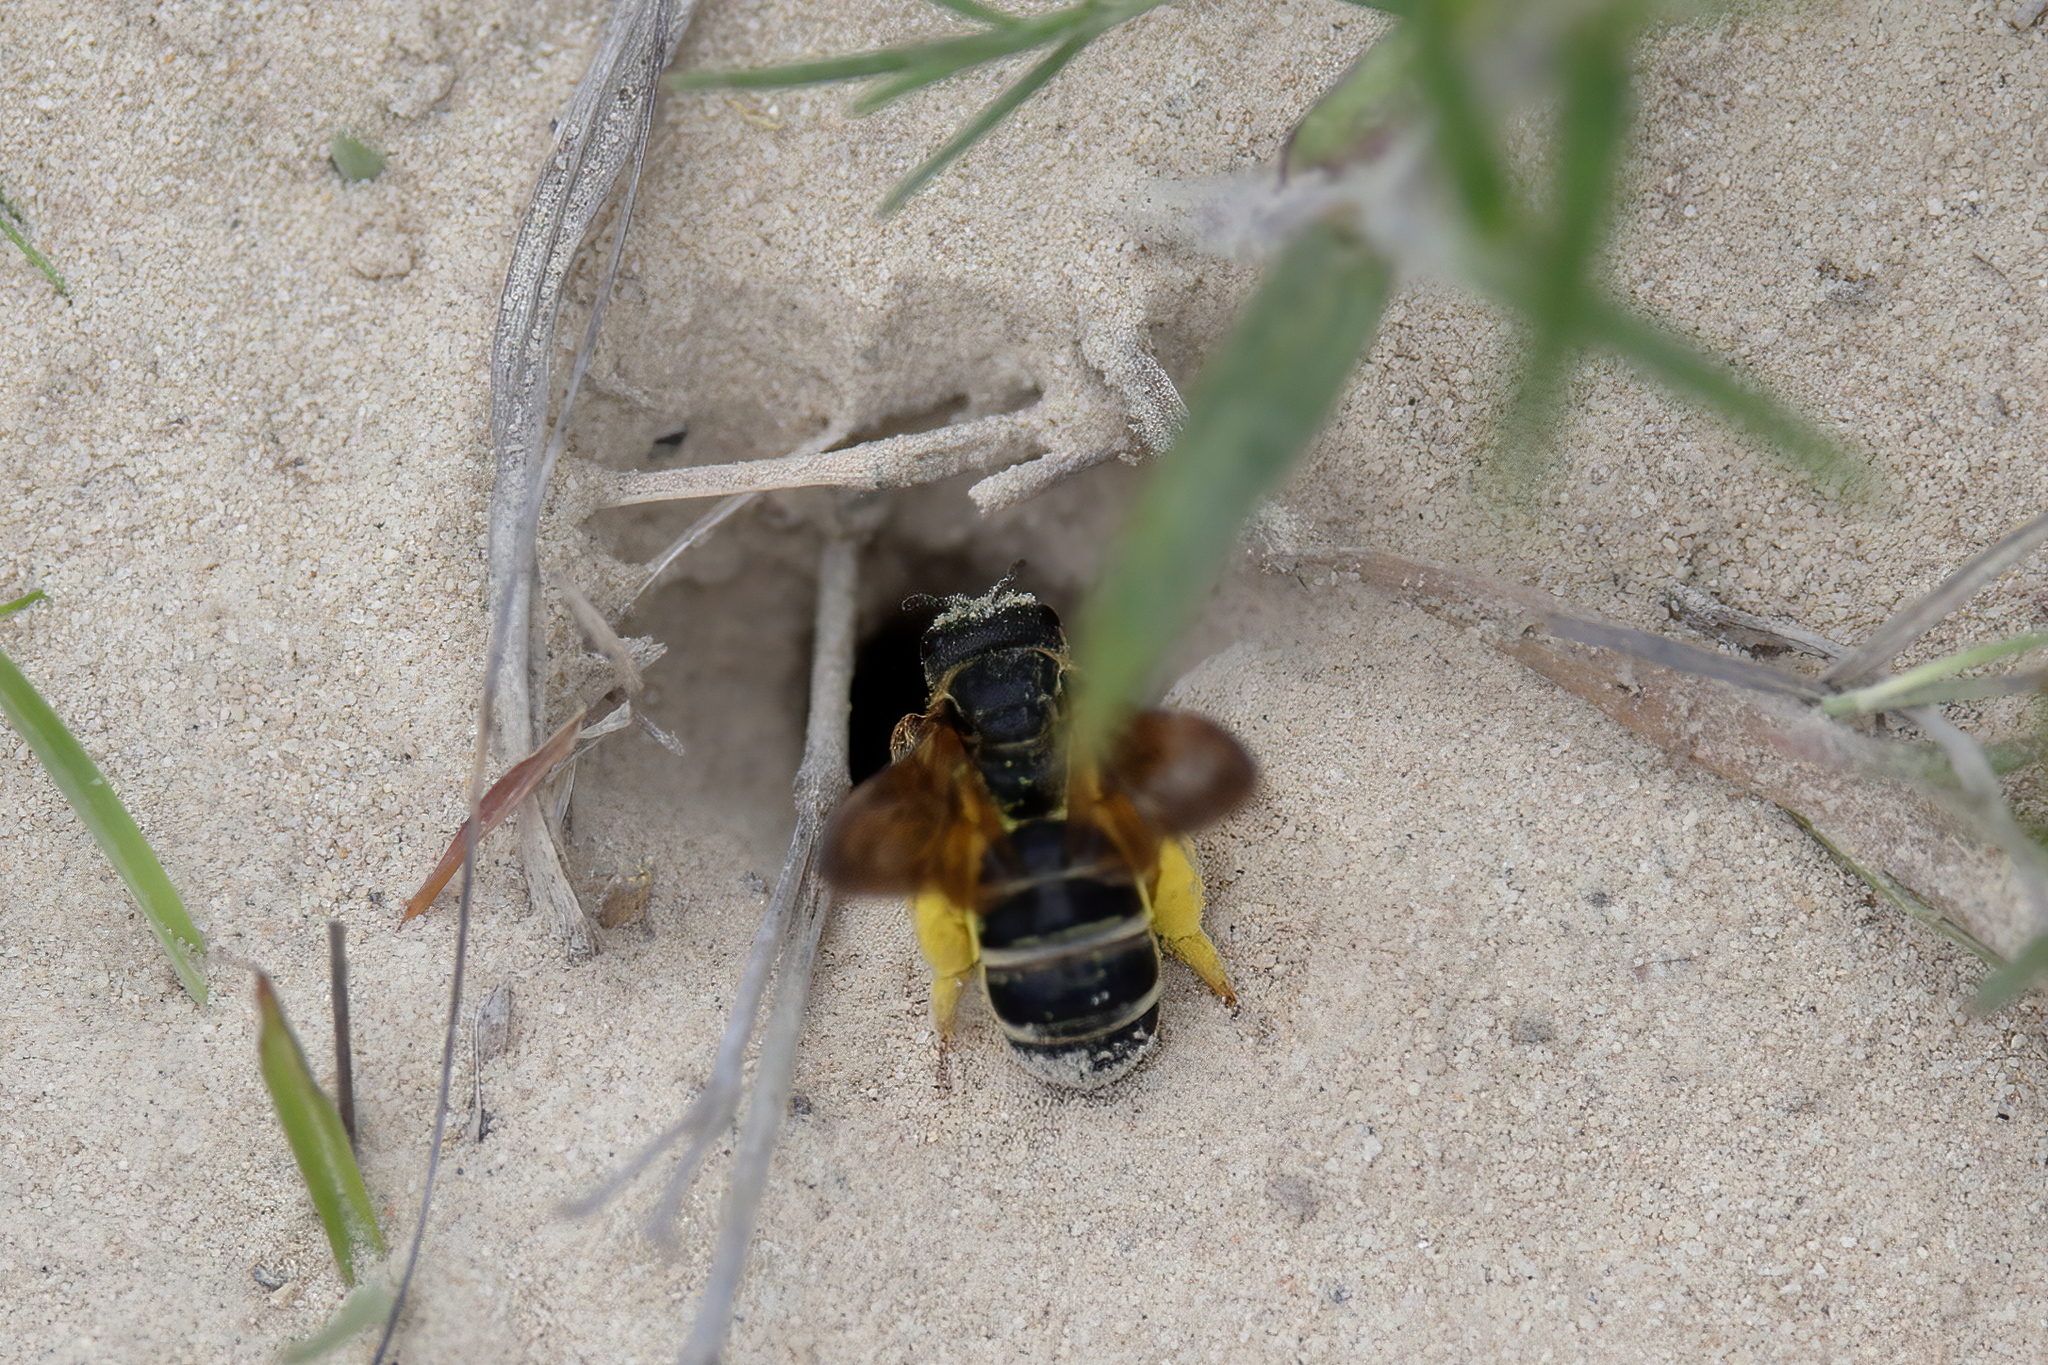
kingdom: Animalia
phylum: Arthropoda
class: Insecta
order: Hymenoptera
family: Halictidae
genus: Halictus
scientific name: Halictus parallelus
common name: Parallel-striped sweat bee
